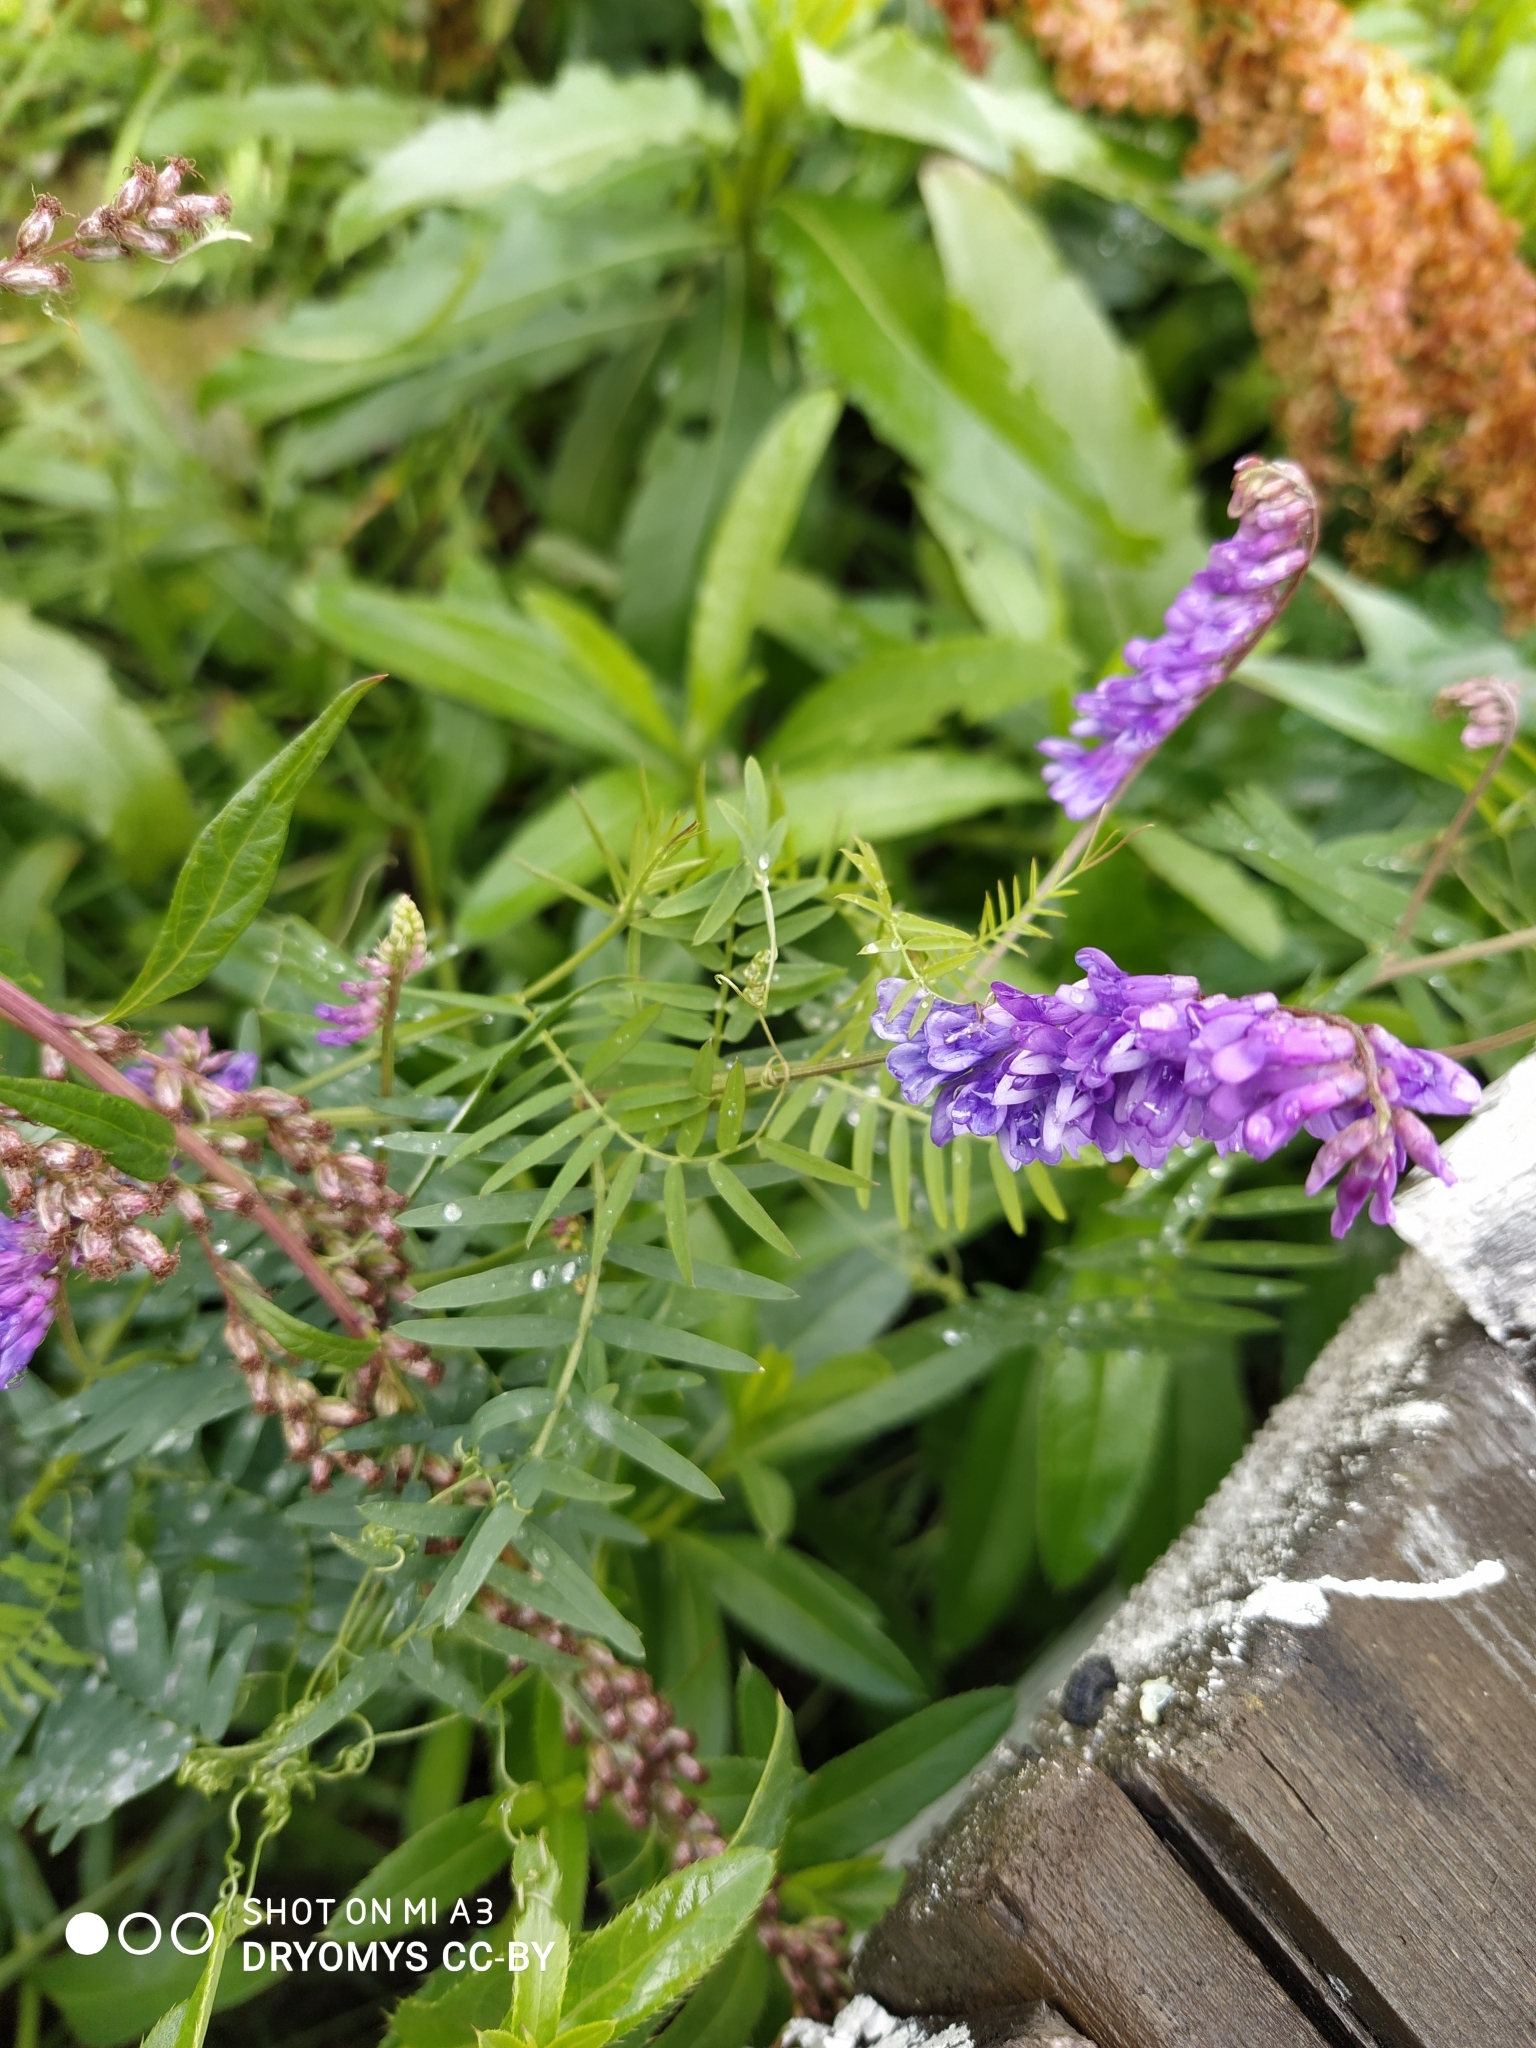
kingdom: Plantae
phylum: Tracheophyta
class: Magnoliopsida
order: Fabales
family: Fabaceae
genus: Vicia
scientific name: Vicia cracca
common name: Bird vetch
